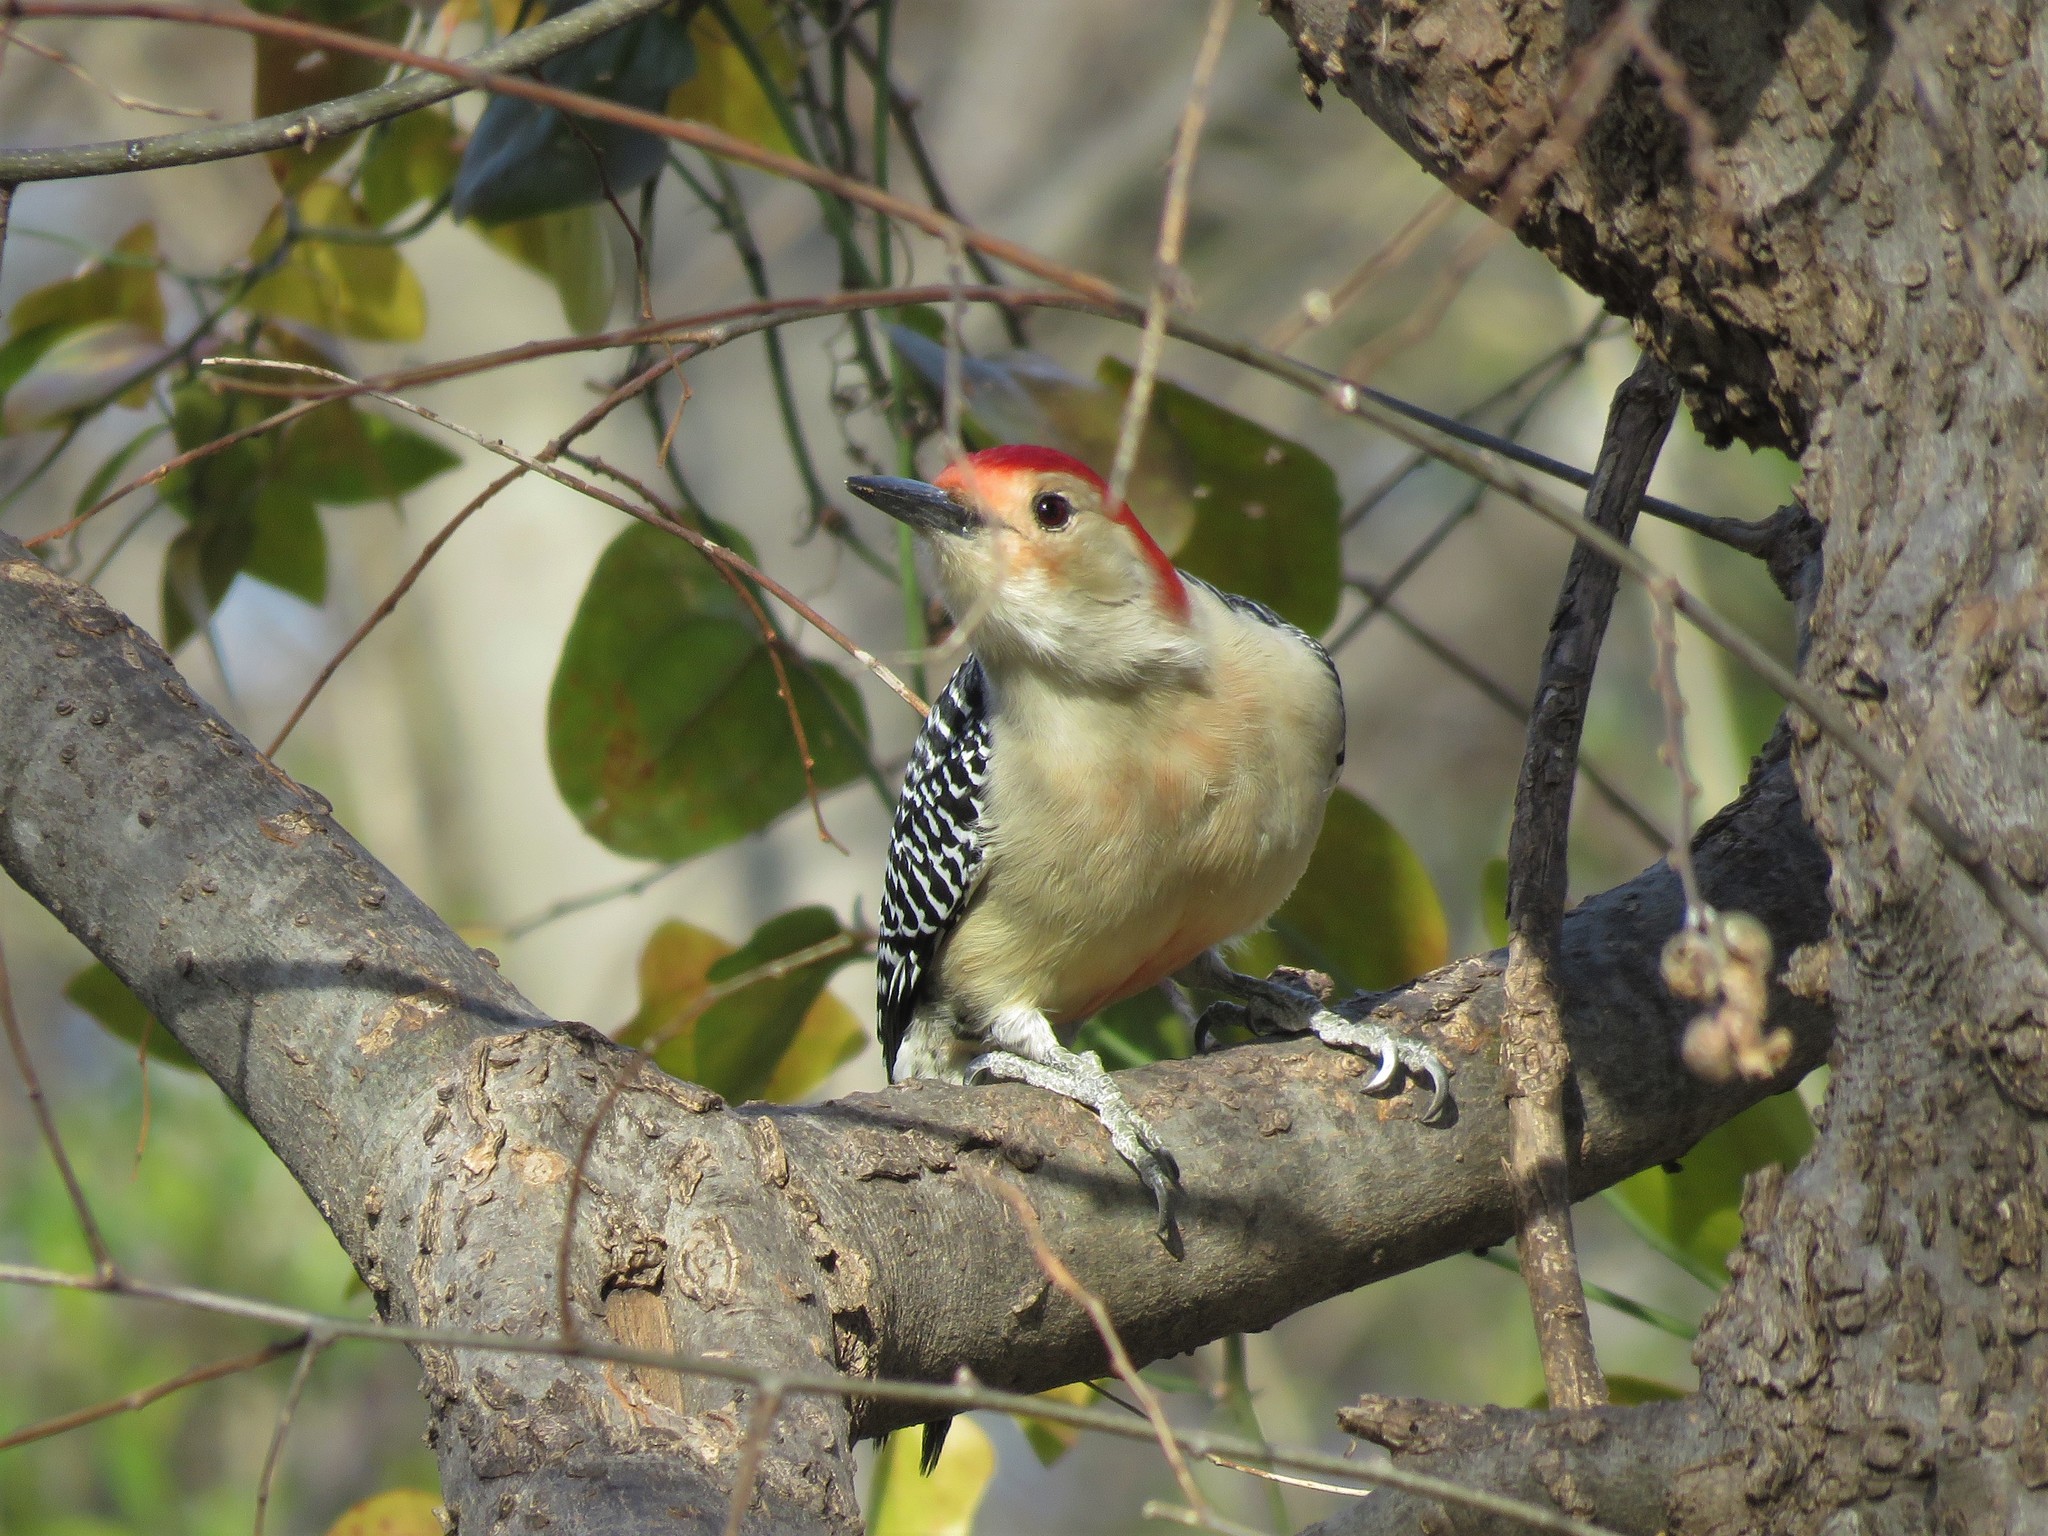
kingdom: Animalia
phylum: Chordata
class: Aves
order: Piciformes
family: Picidae
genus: Melanerpes
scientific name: Melanerpes carolinus
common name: Red-bellied woodpecker
